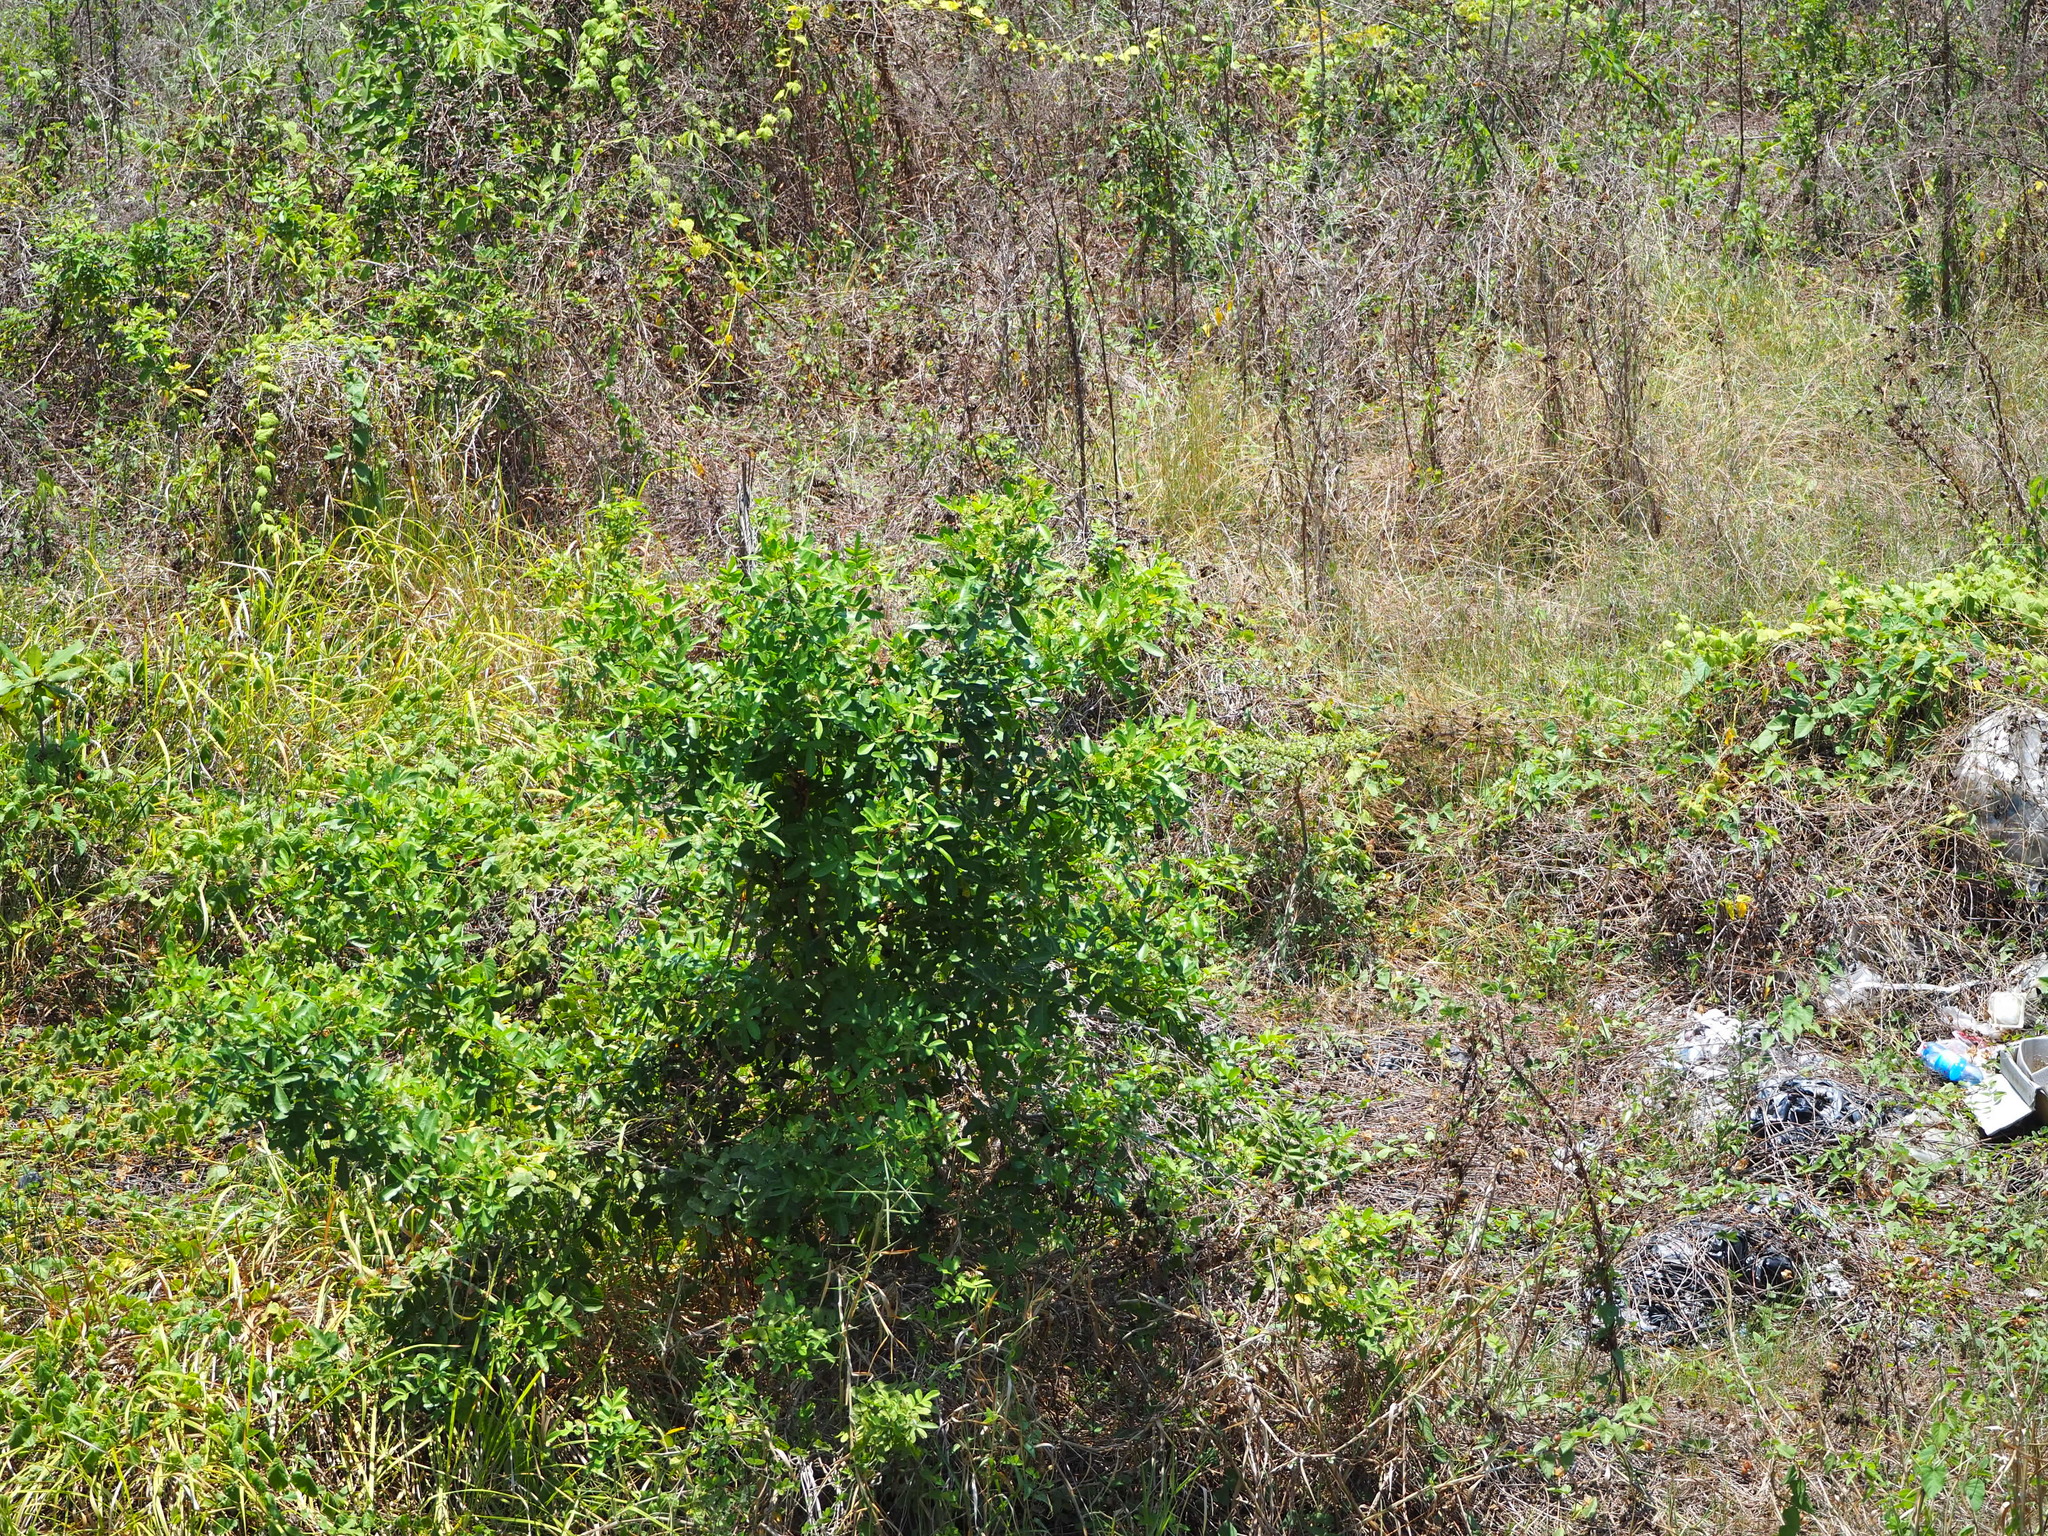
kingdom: Plantae
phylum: Tracheophyta
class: Magnoliopsida
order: Sapindales
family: Anacardiaceae
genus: Schinus
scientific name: Schinus terebinthifolia
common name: Brazilian peppertree
